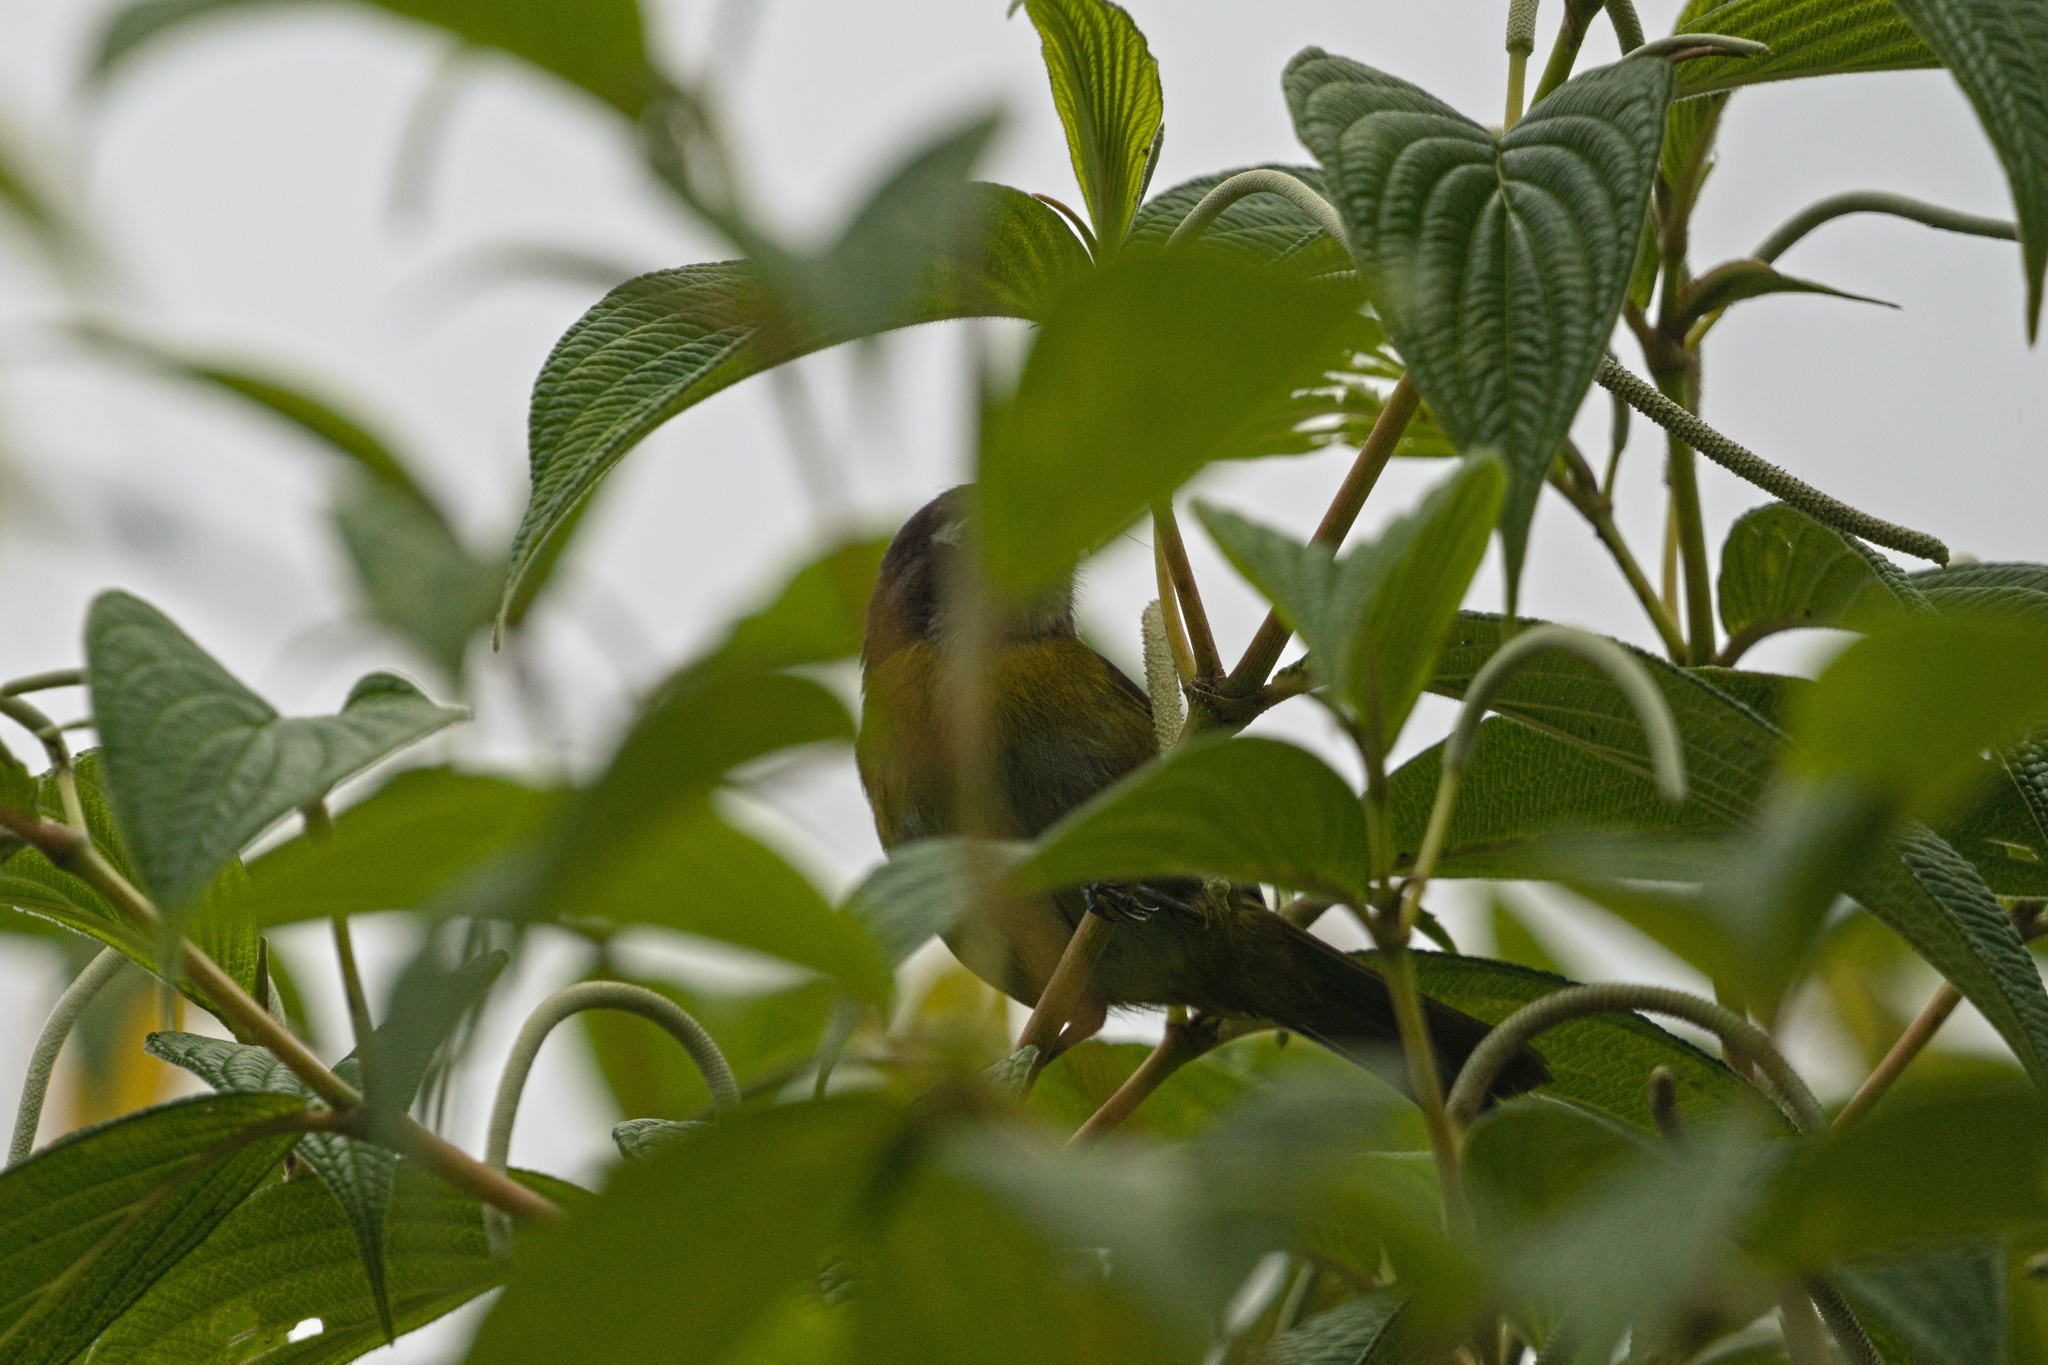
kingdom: Animalia
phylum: Chordata
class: Aves
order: Passeriformes
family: Passerellidae
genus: Chlorospingus
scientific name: Chlorospingus flavopectus
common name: Common chlorospingus
